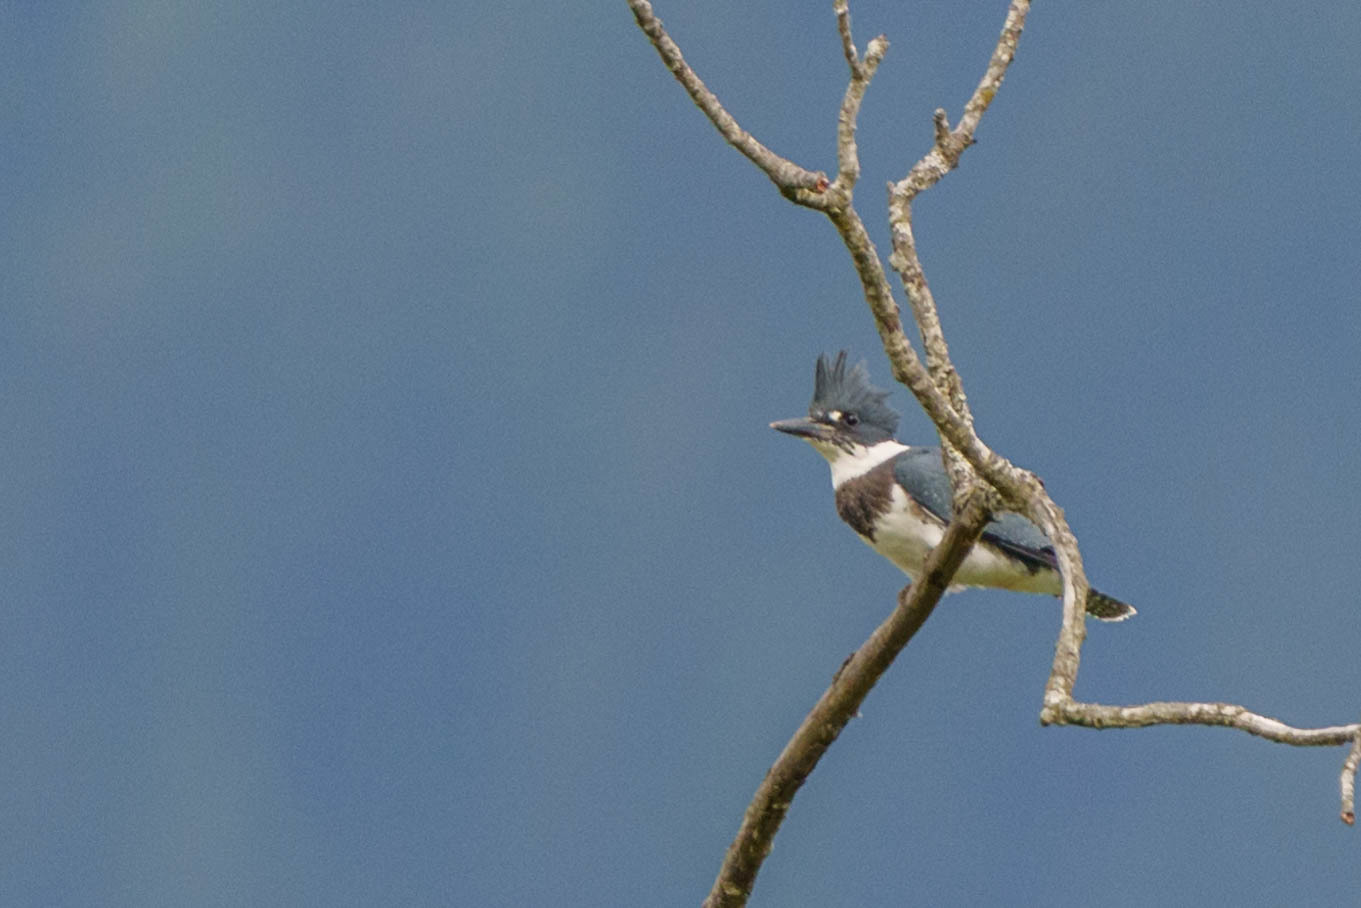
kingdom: Animalia
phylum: Chordata
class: Aves
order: Coraciiformes
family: Alcedinidae
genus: Megaceryle
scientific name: Megaceryle alcyon
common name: Belted kingfisher
